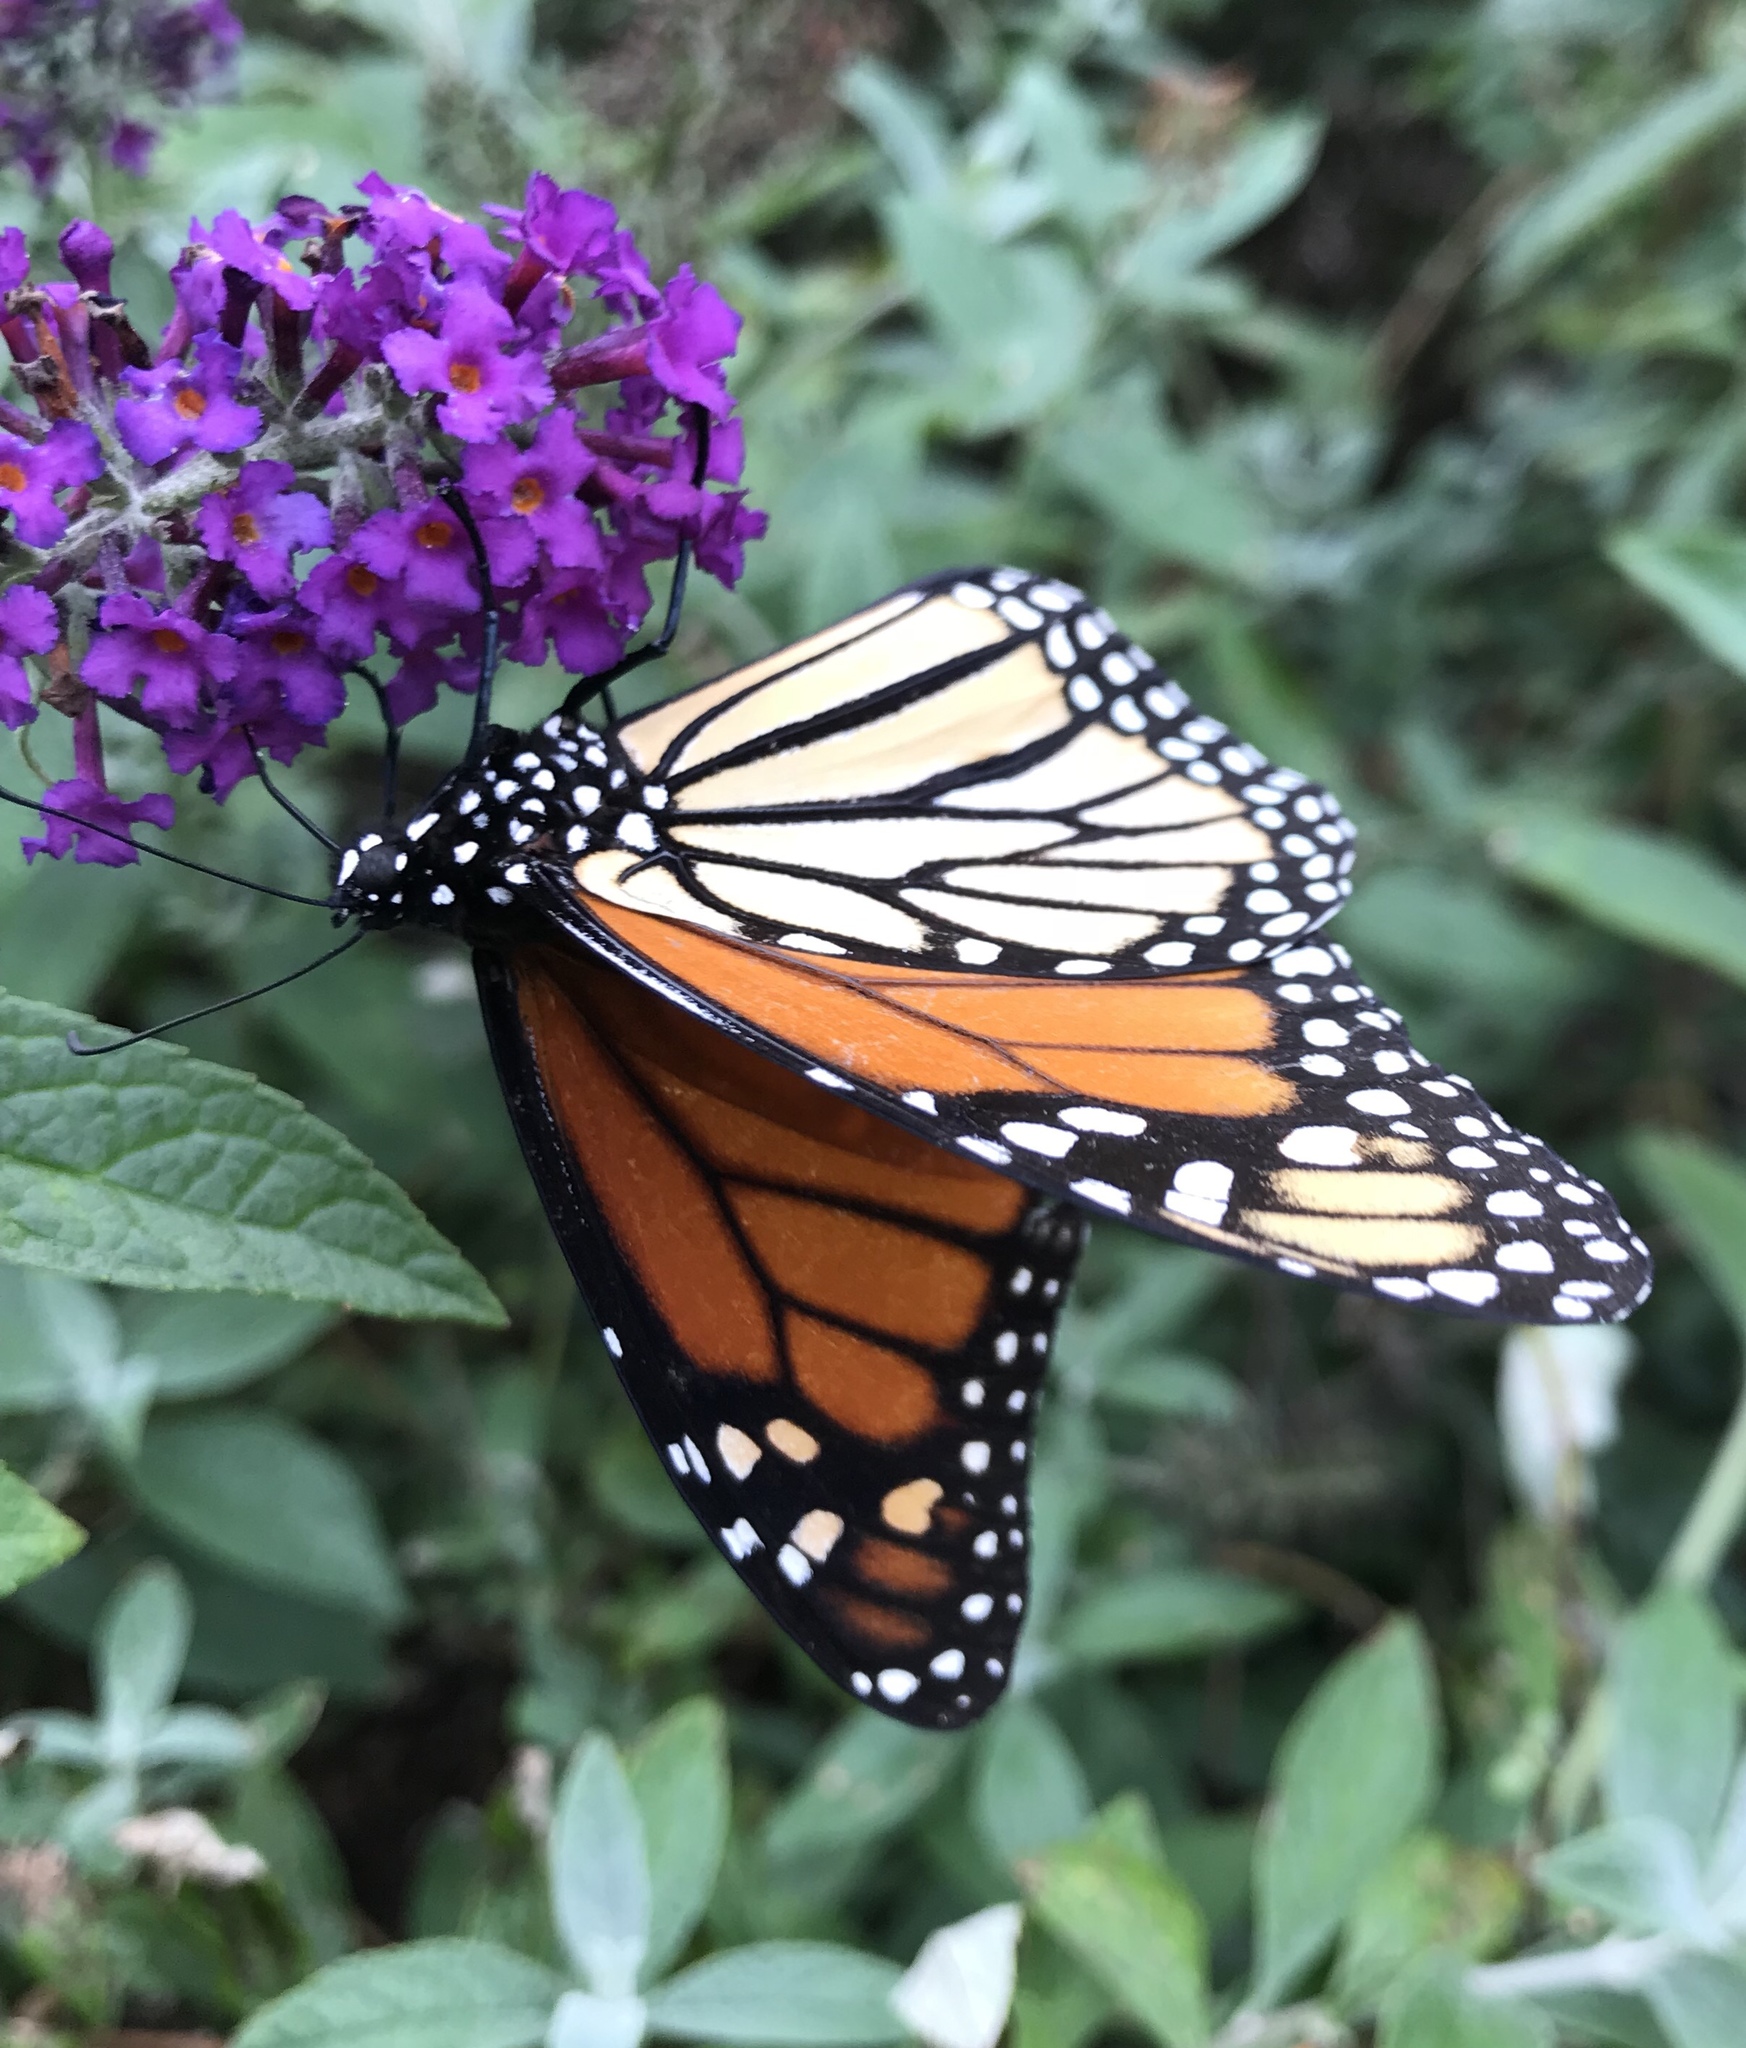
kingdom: Animalia
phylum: Arthropoda
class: Insecta
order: Lepidoptera
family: Nymphalidae
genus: Danaus
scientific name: Danaus plexippus
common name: Monarch
